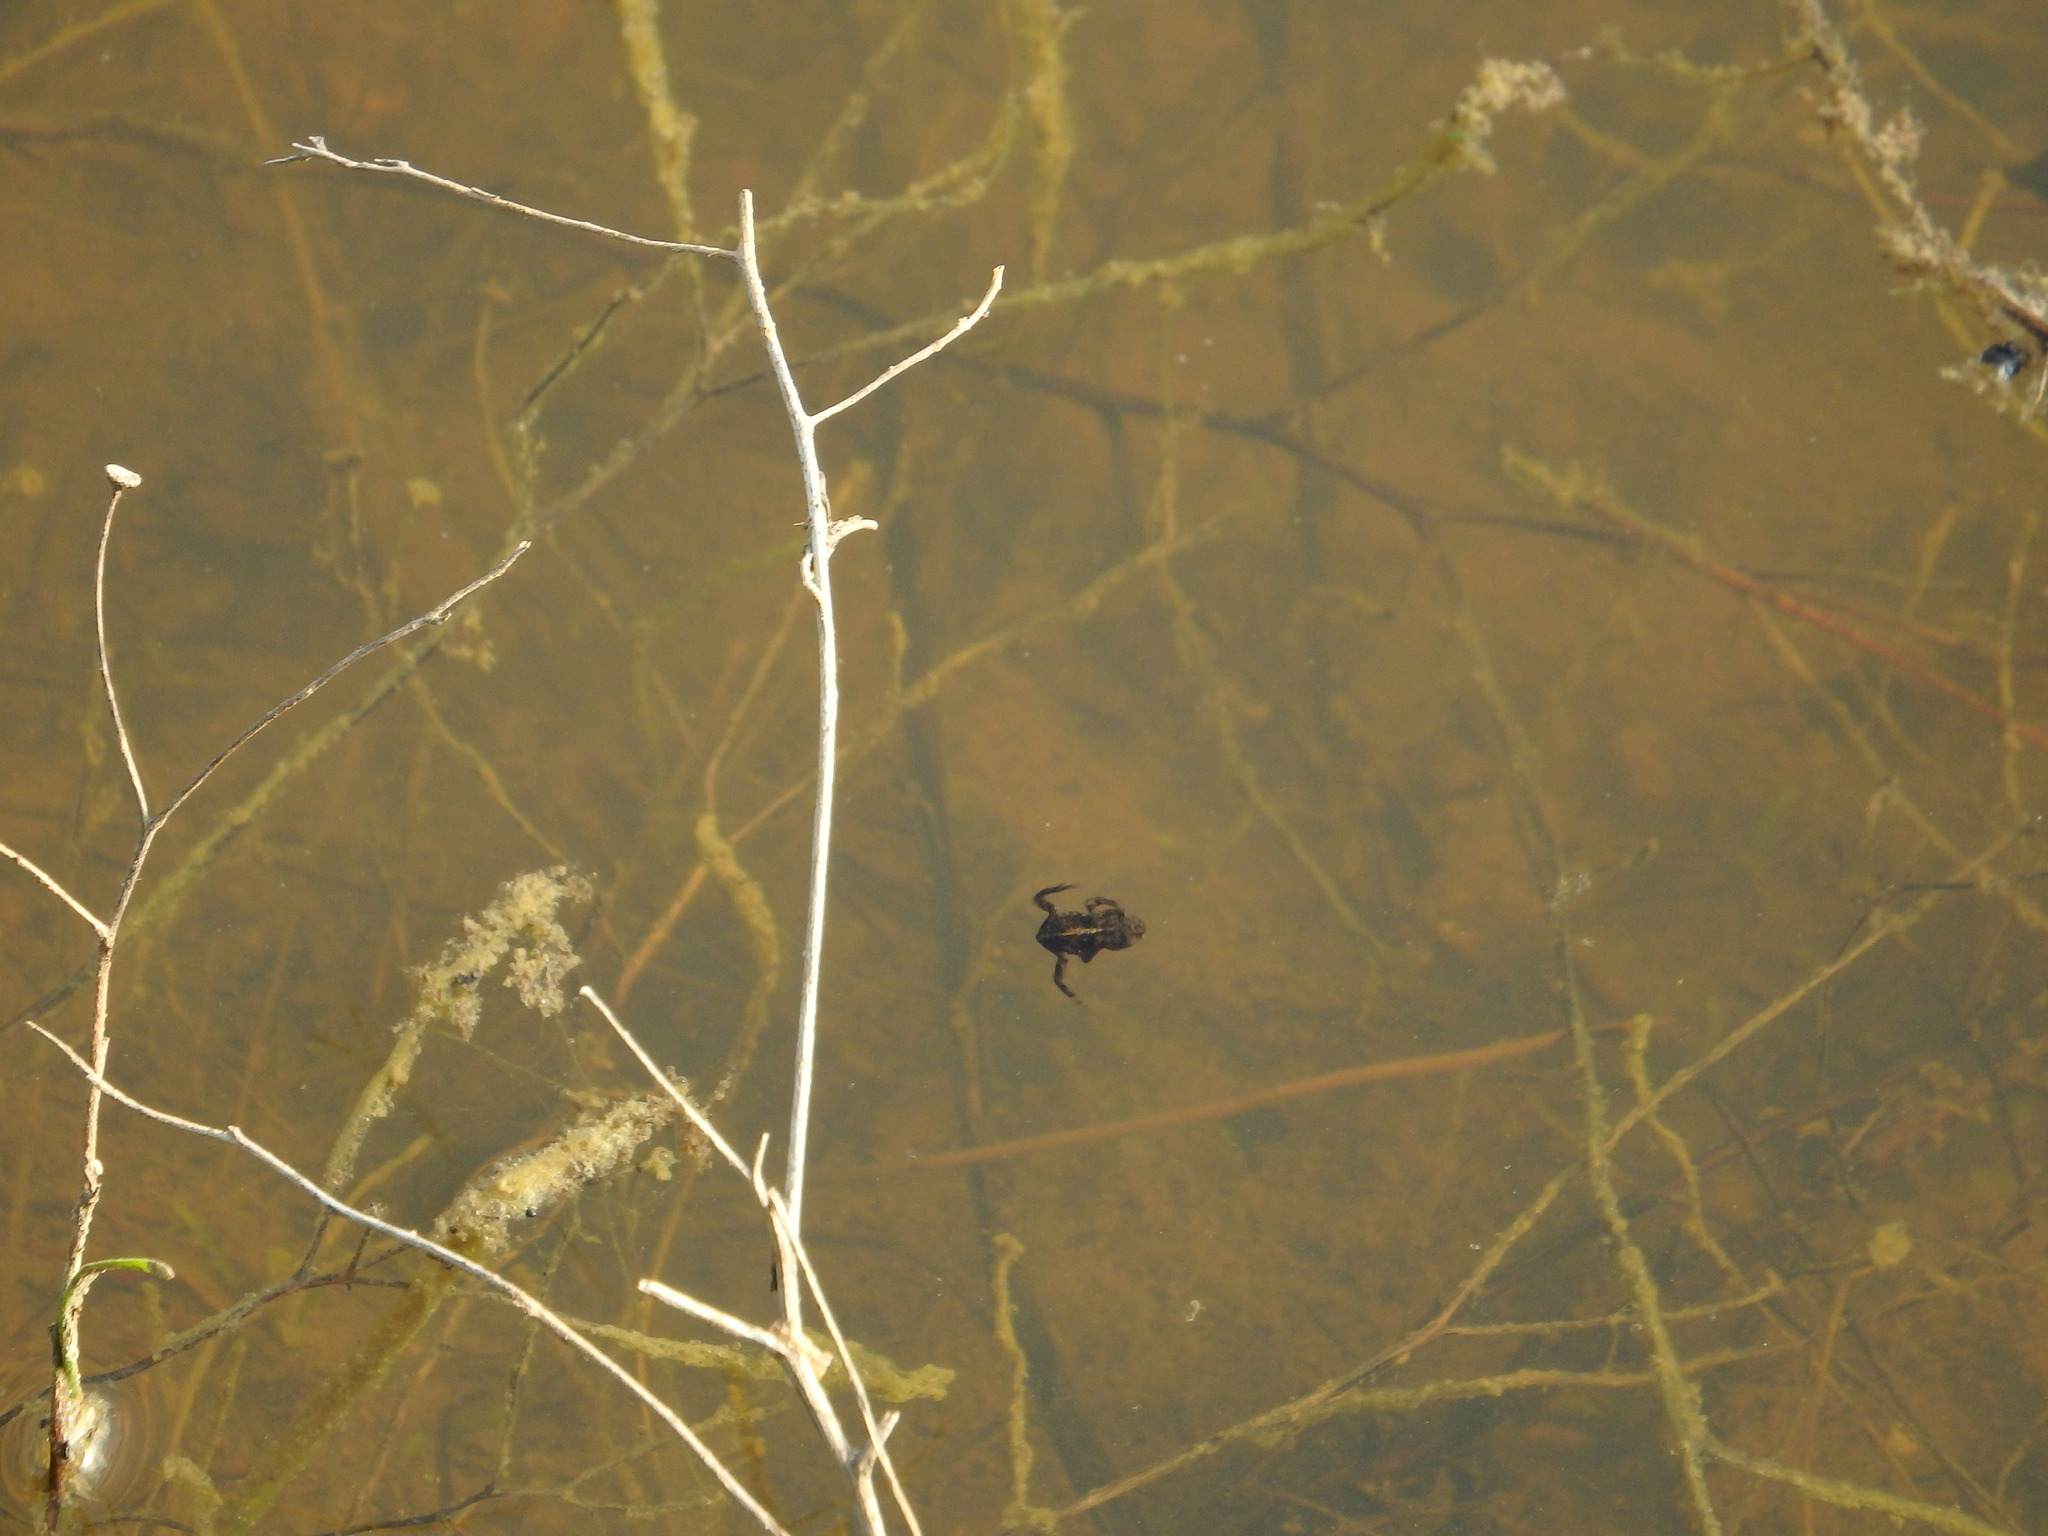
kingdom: Animalia
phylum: Chordata
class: Amphibia
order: Anura
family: Bufonidae
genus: Epidalea
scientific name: Epidalea calamita
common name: Natterjack toad
